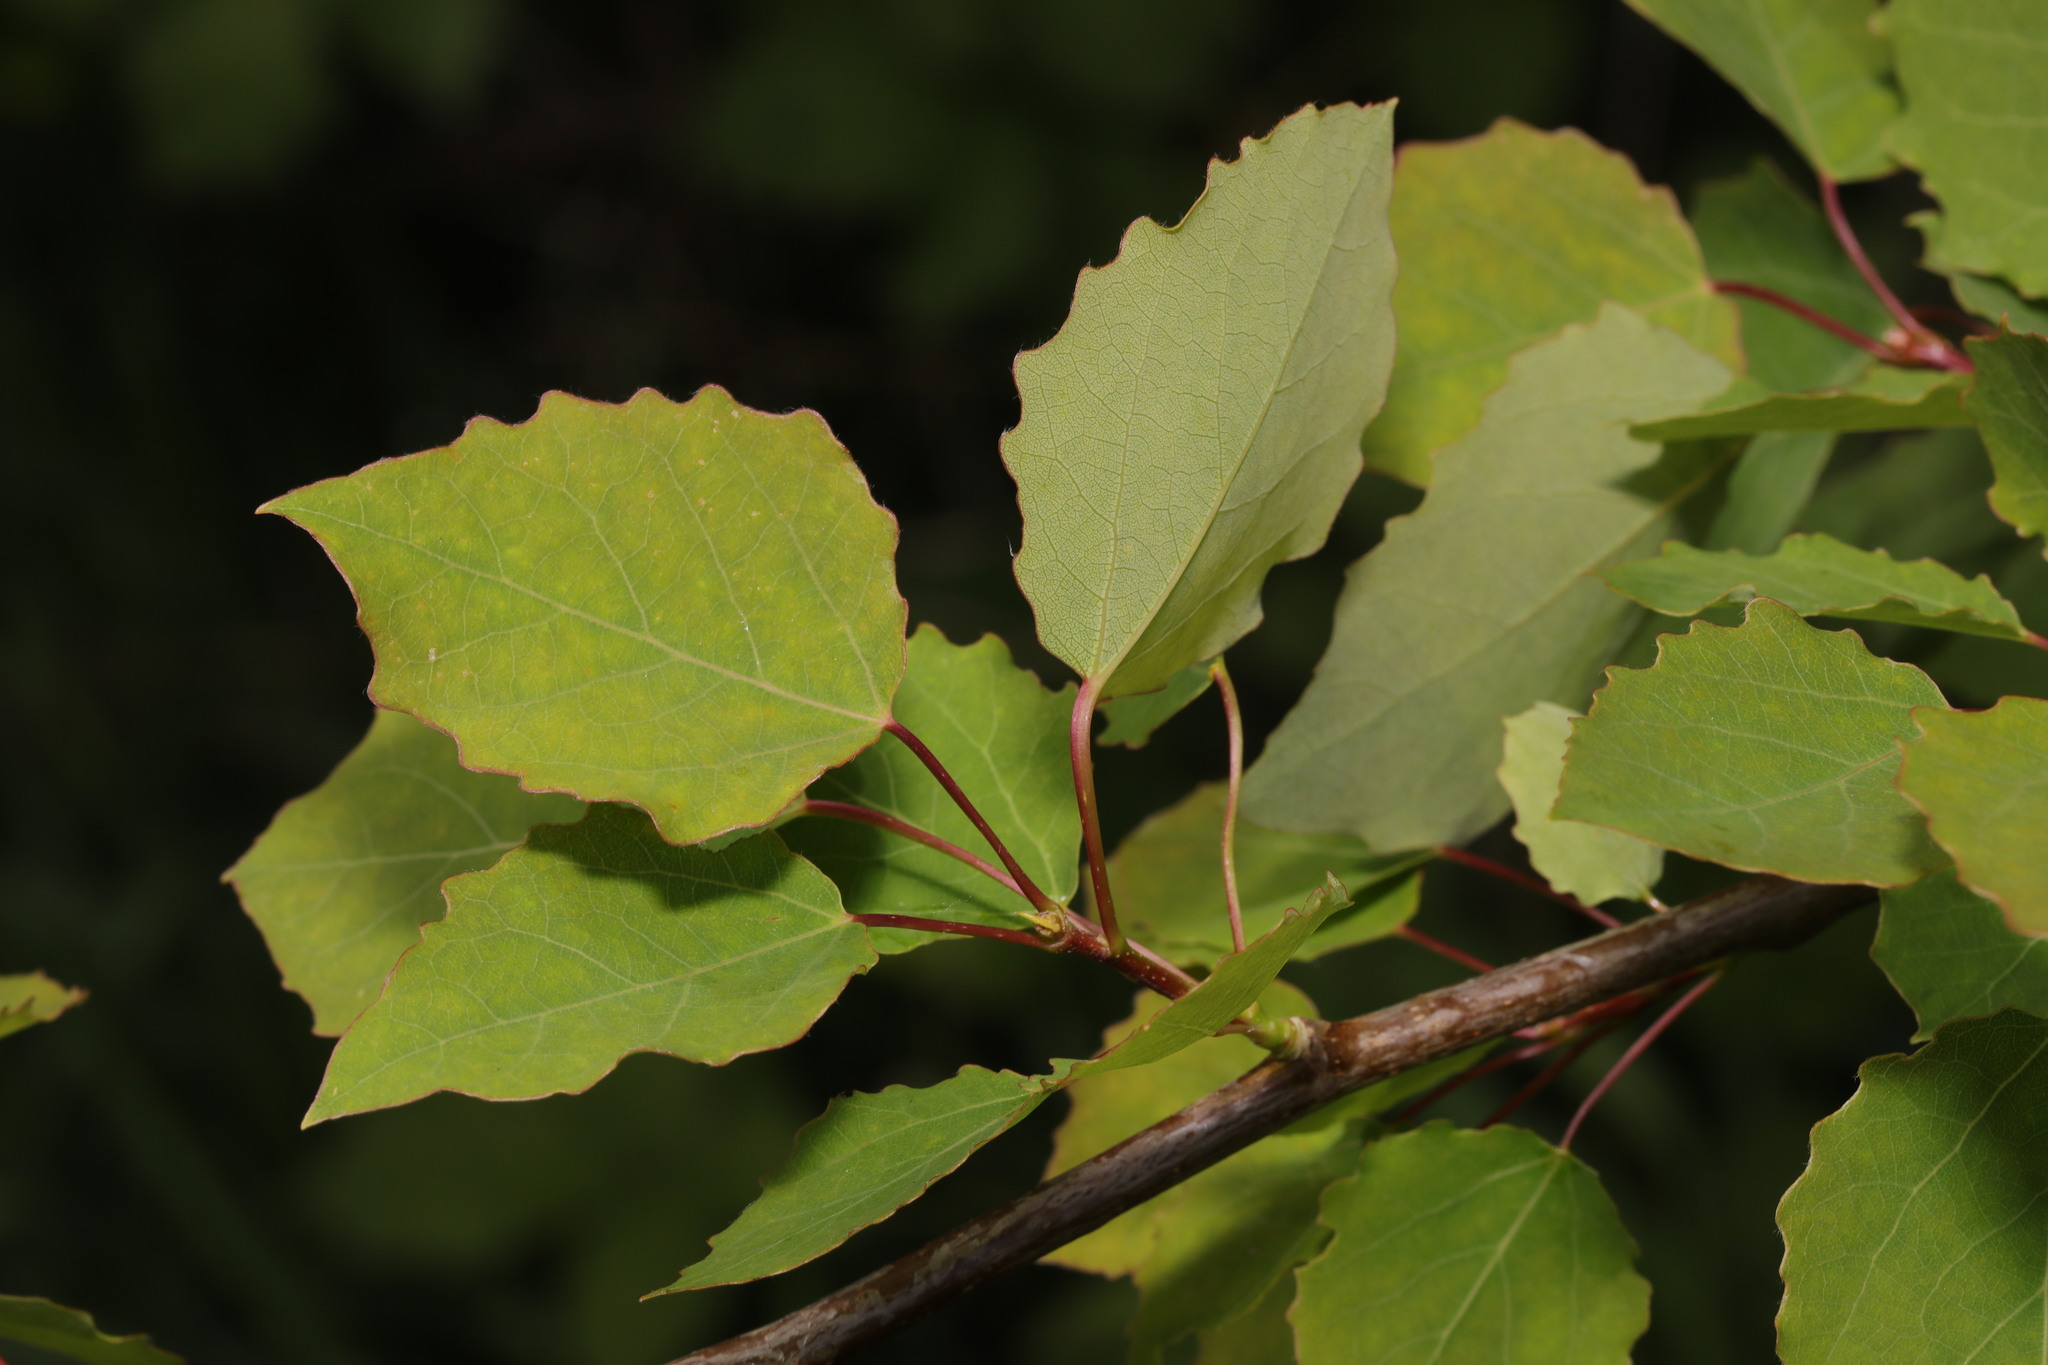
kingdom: Plantae
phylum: Tracheophyta
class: Magnoliopsida
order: Malpighiales
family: Salicaceae
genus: Populus
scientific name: Populus tremula
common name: European aspen
